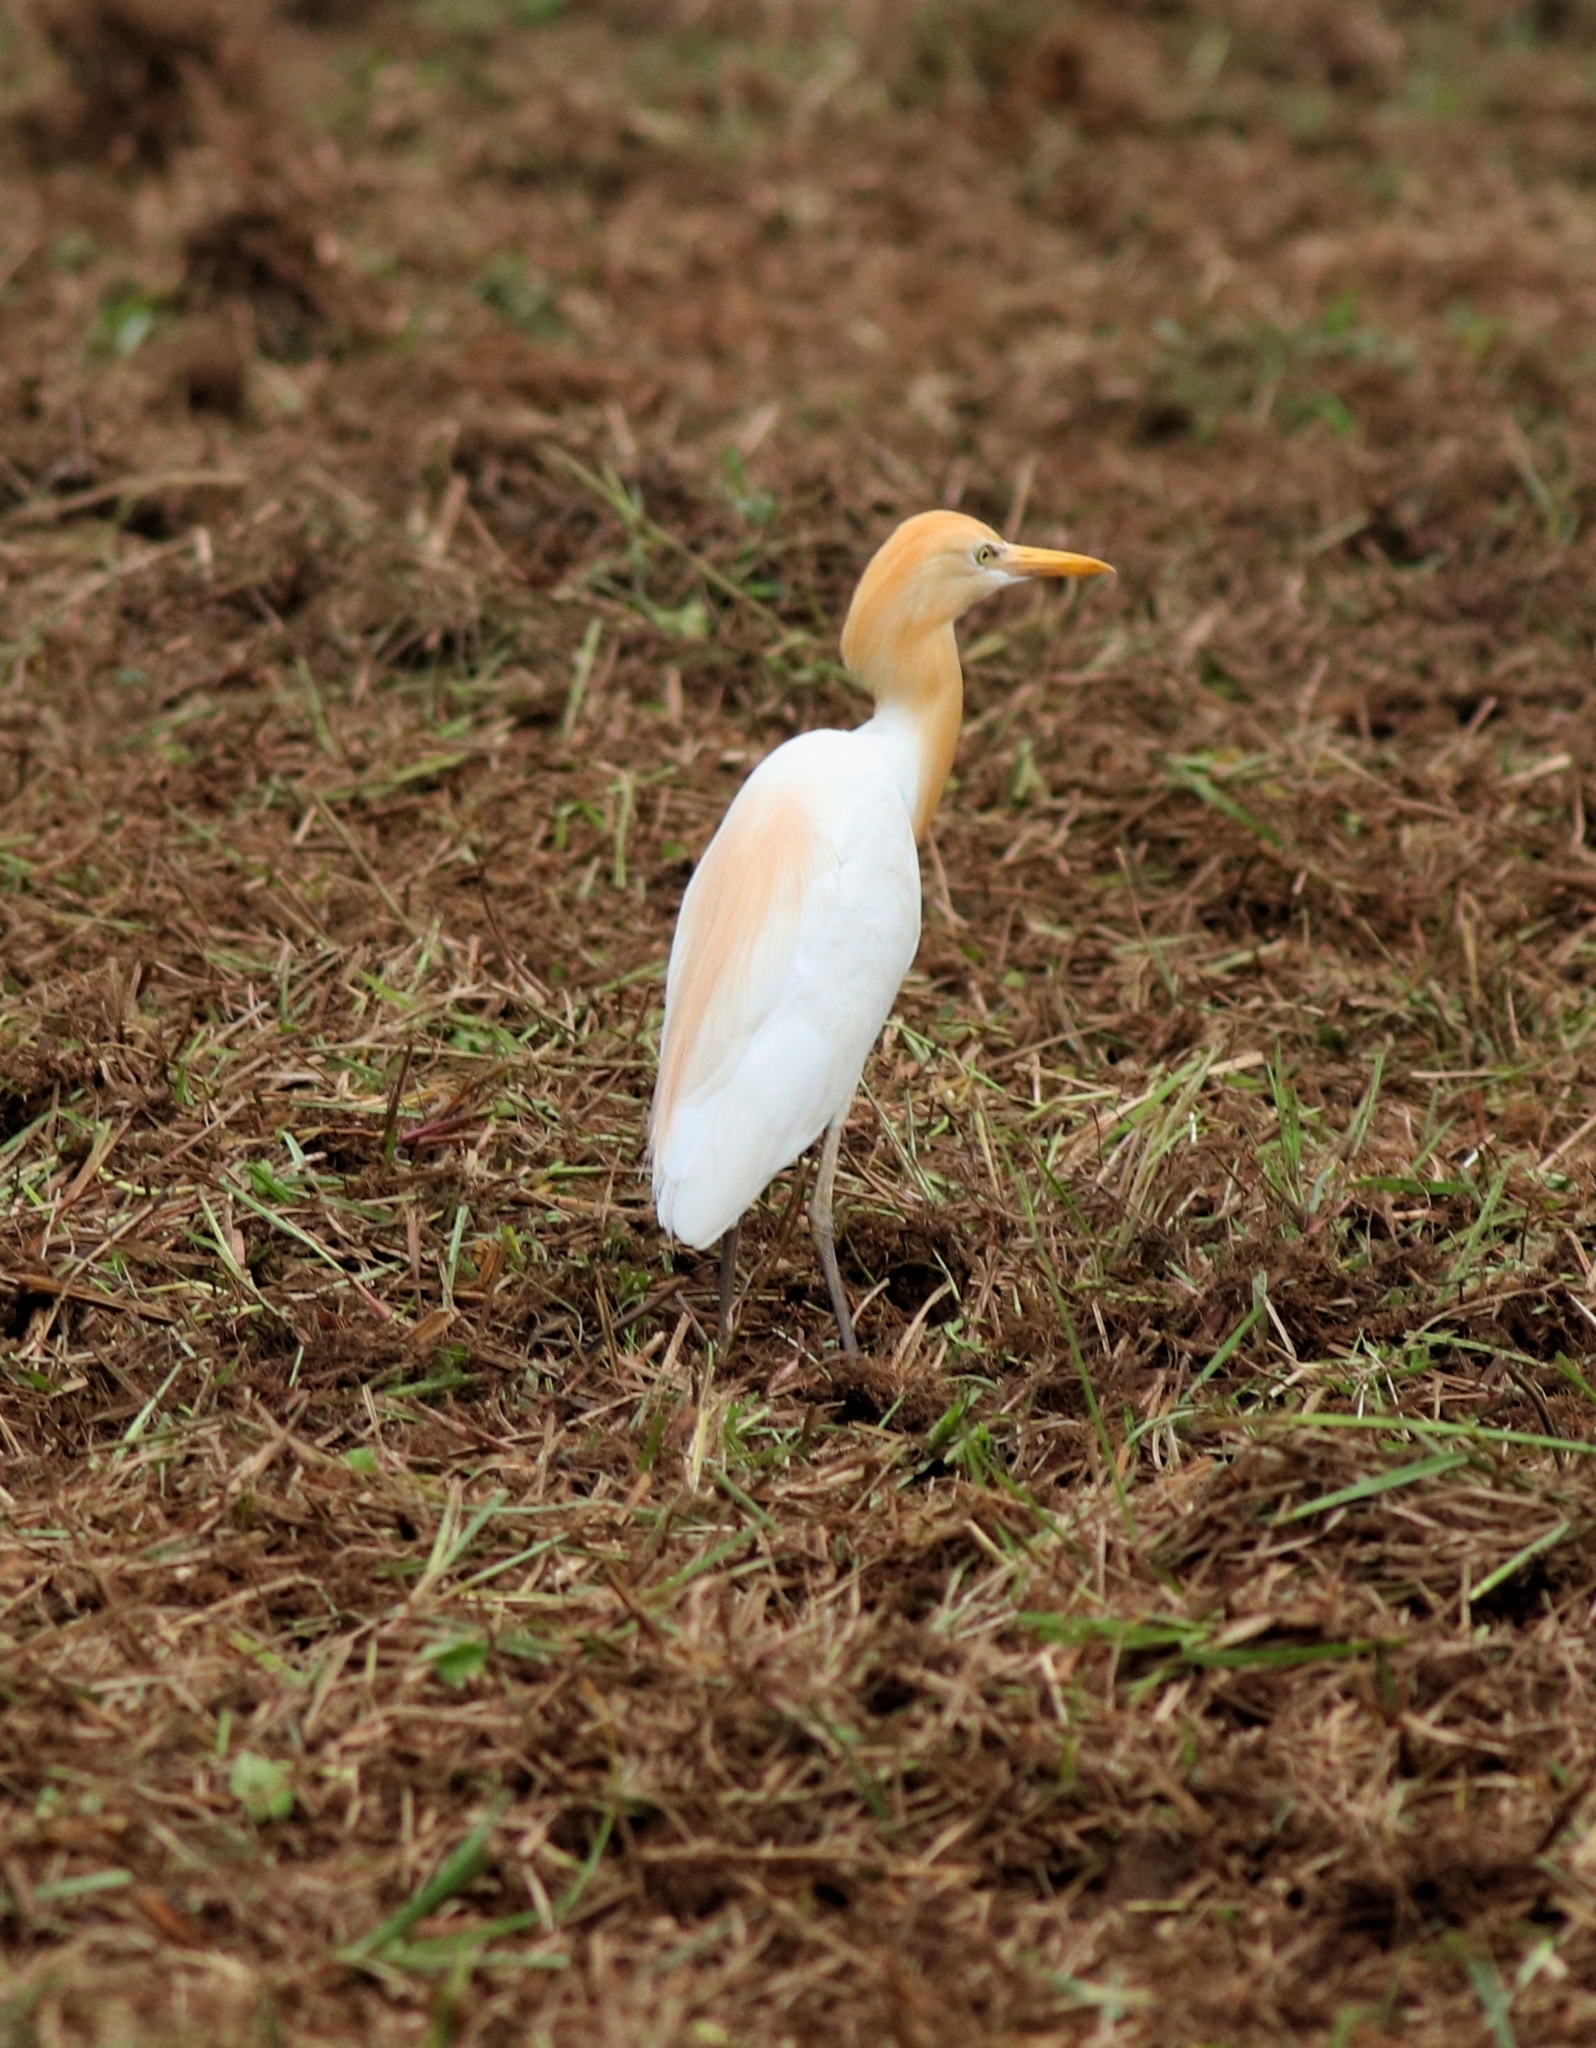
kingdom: Animalia
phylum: Chordata
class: Aves
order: Pelecaniformes
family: Ardeidae
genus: Bubulcus
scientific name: Bubulcus coromandus
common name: Eastern cattle egret
